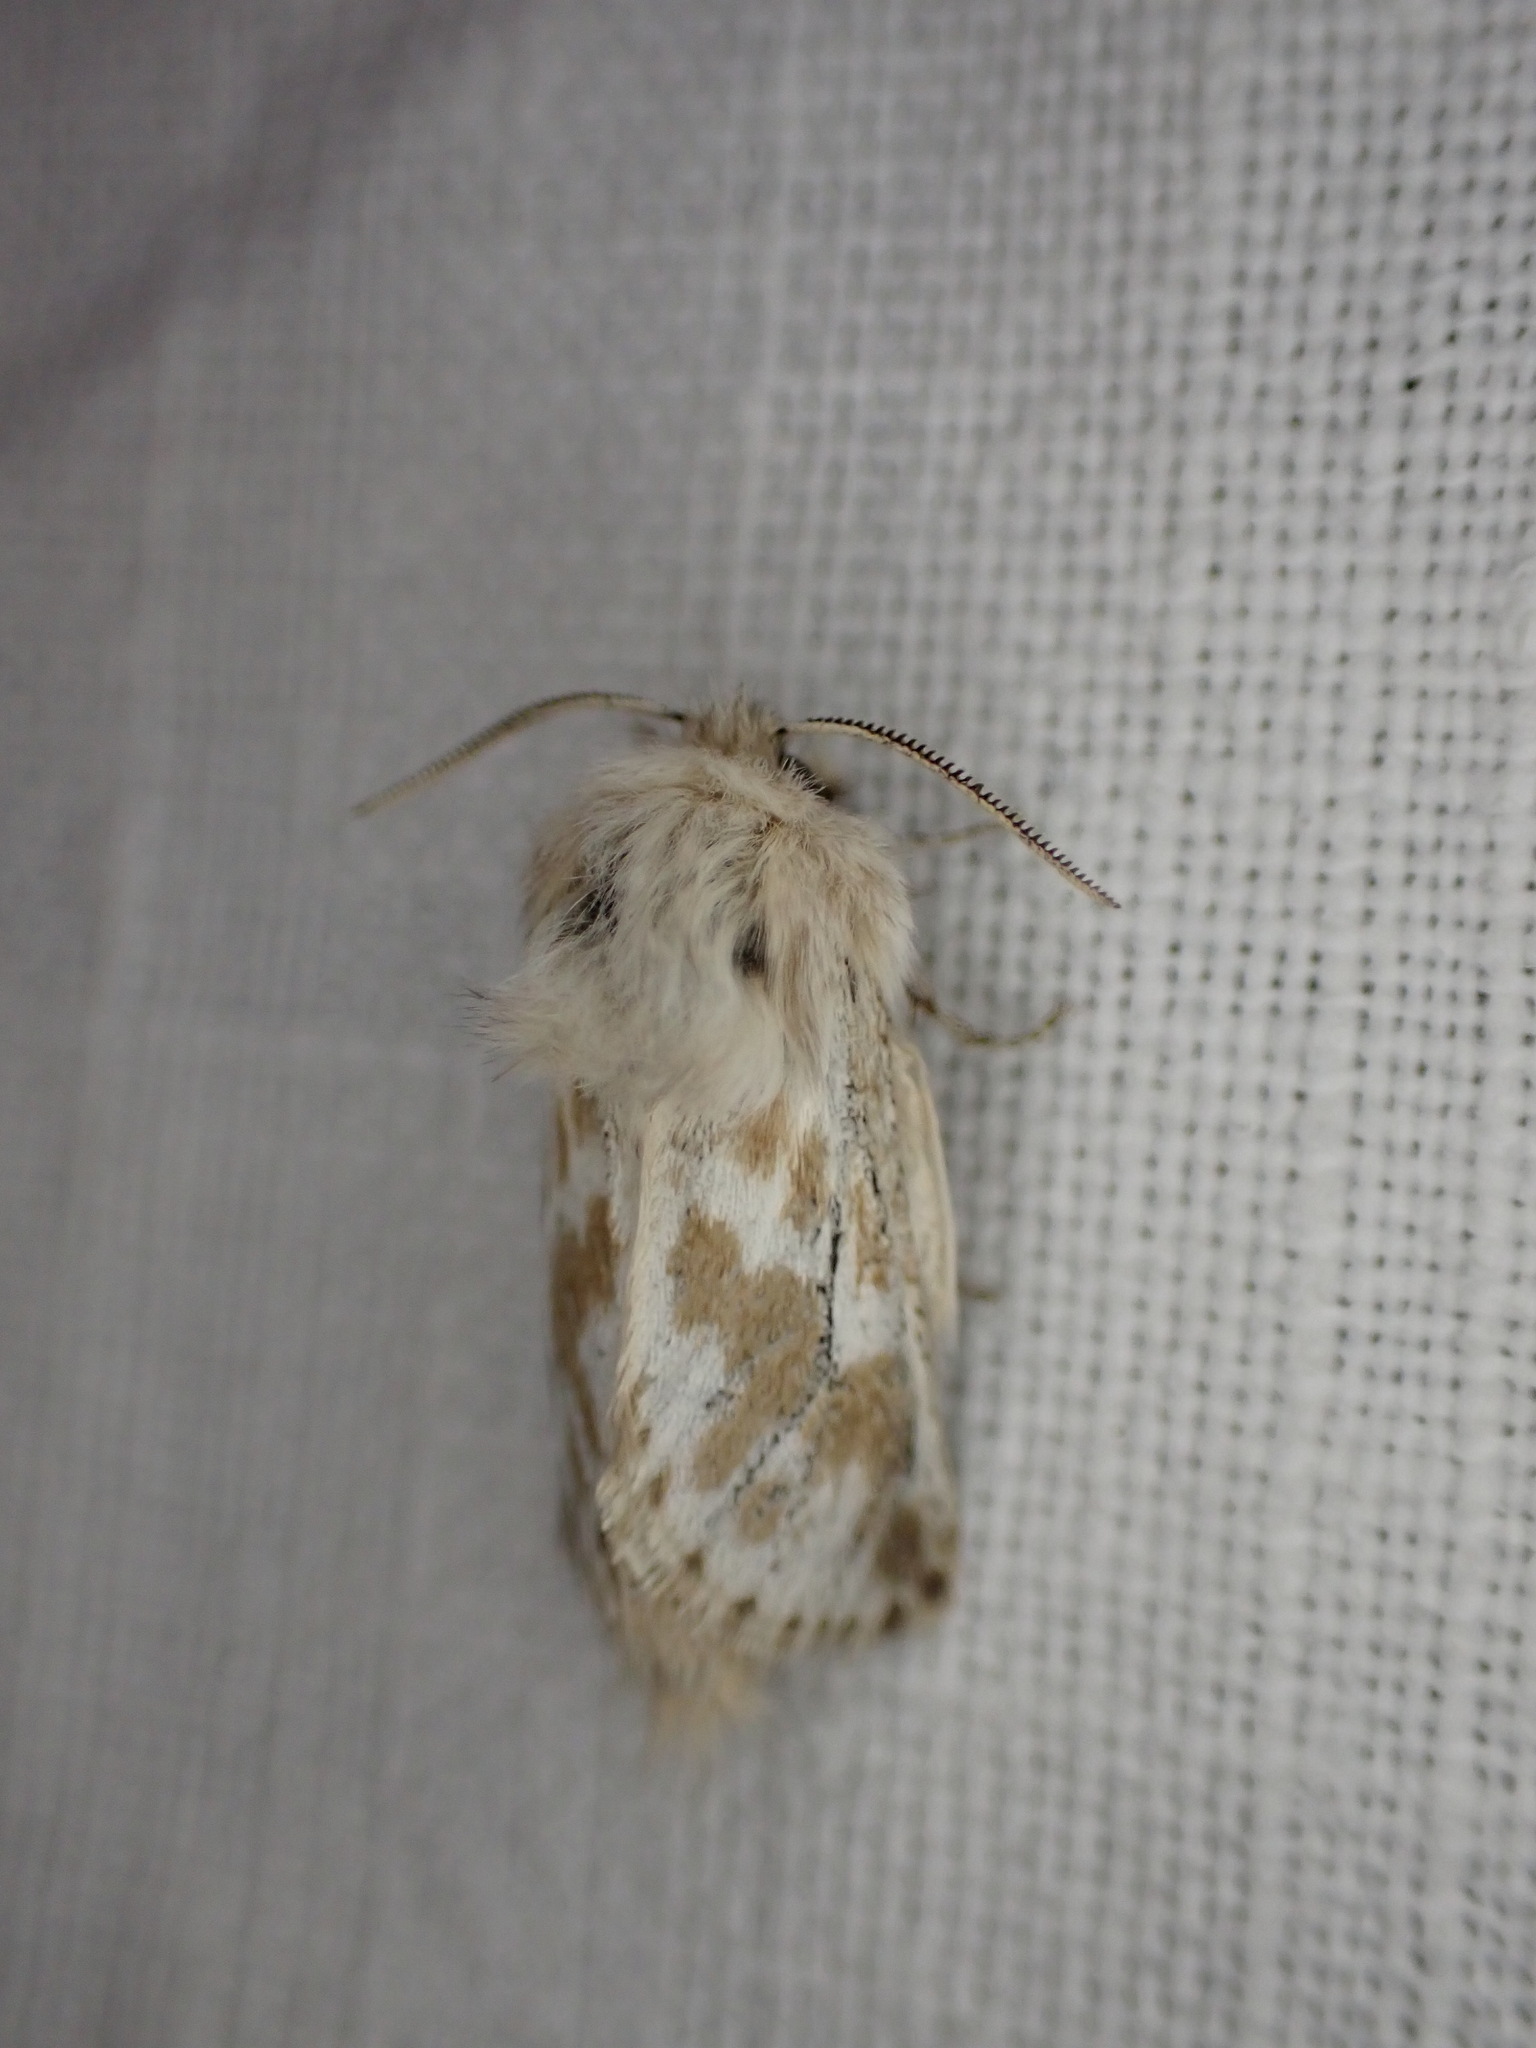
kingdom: Animalia
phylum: Arthropoda
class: Insecta
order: Lepidoptera
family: Cossidae
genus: Dyspessa
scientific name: Dyspessa ulula
